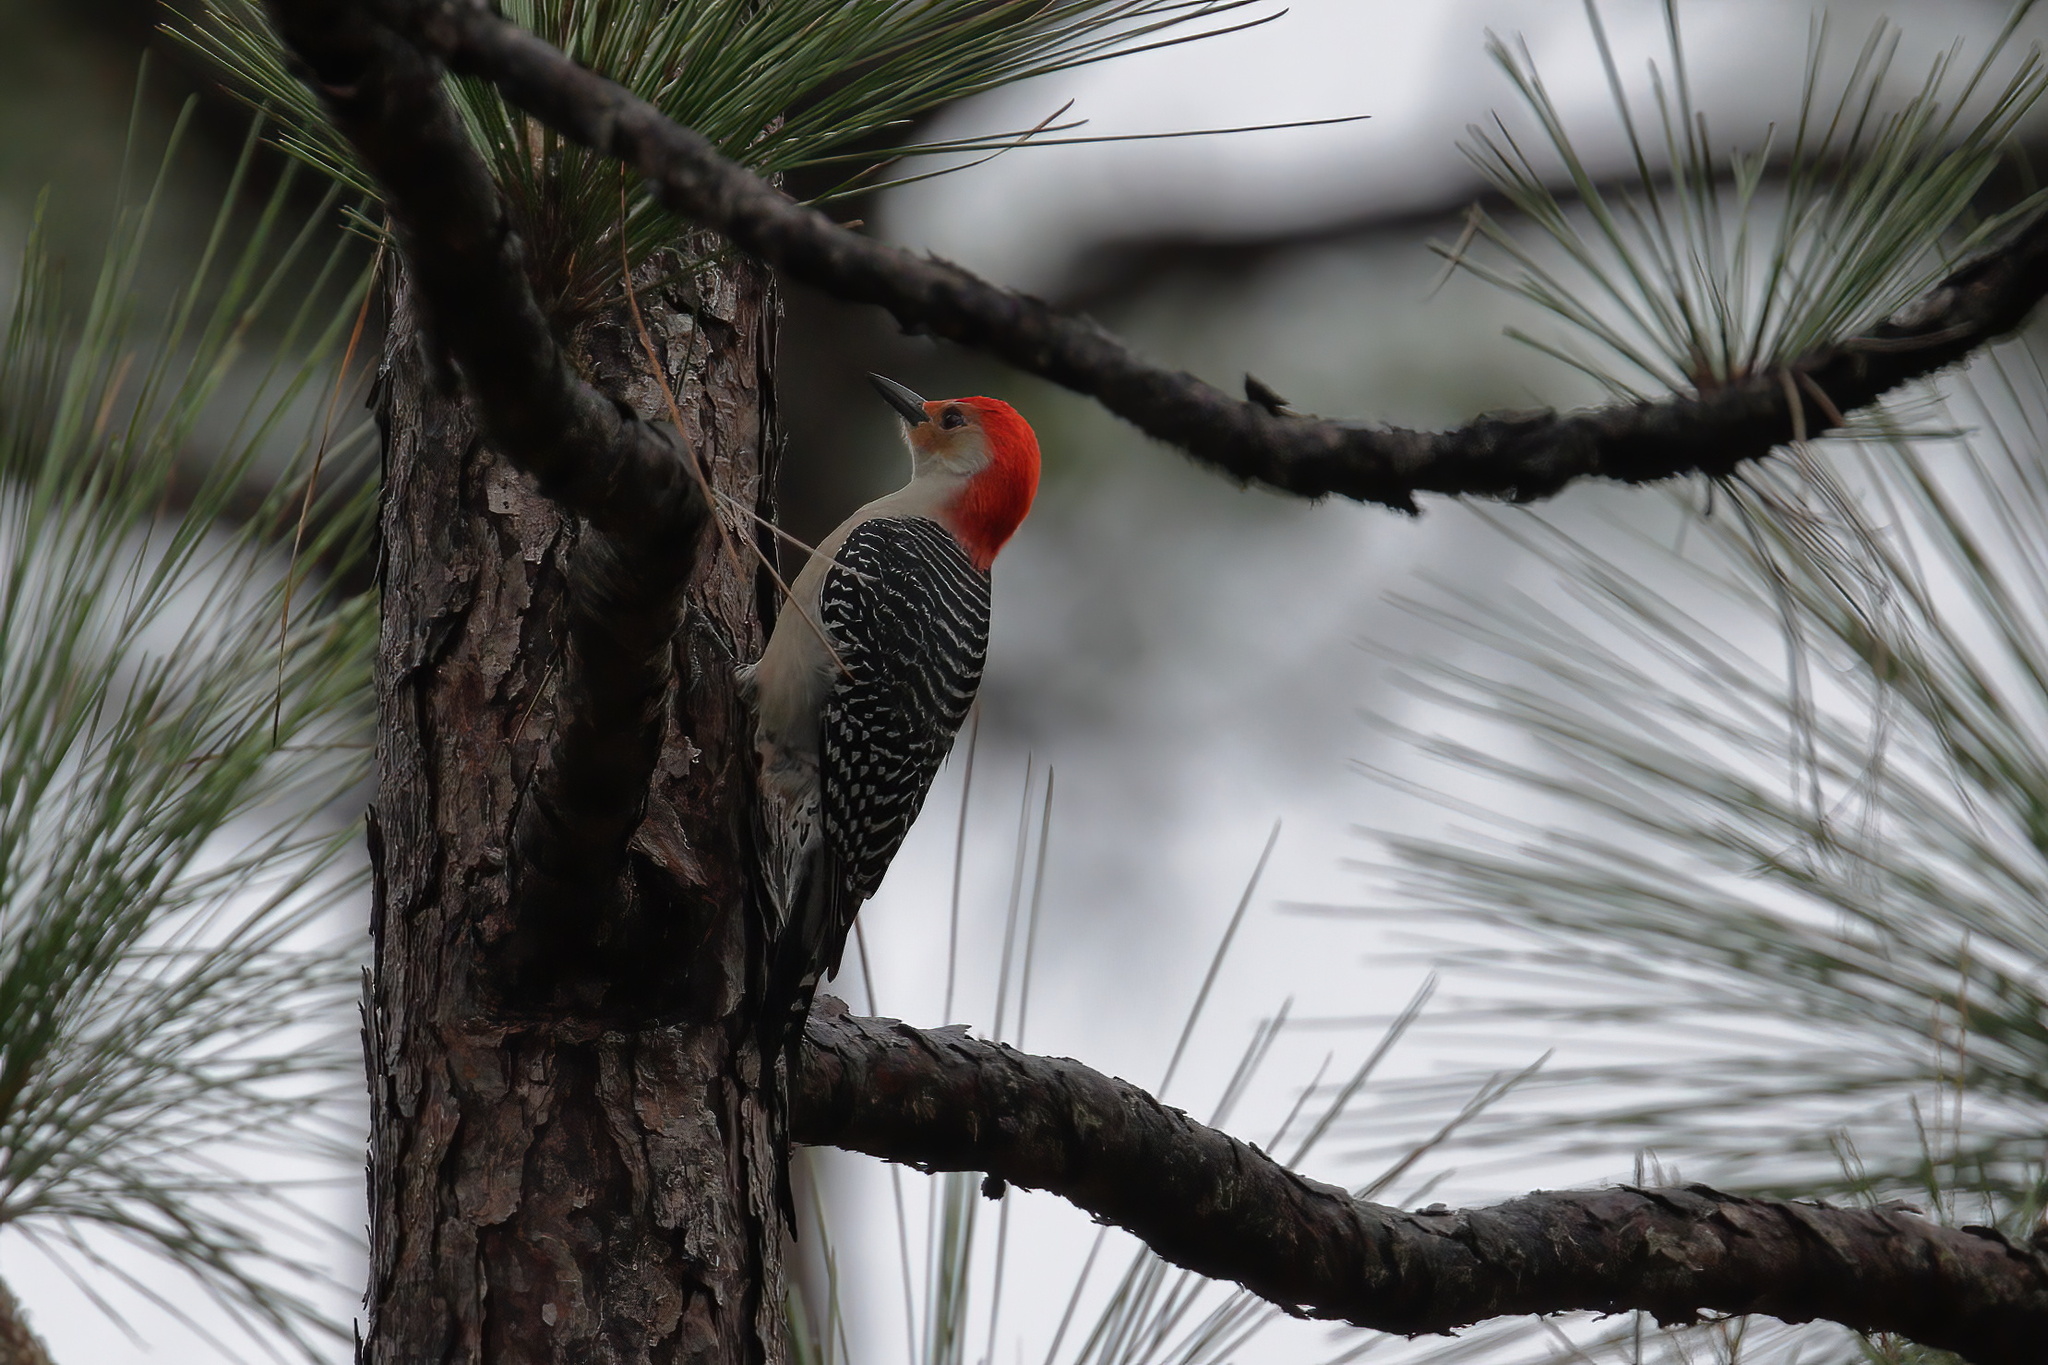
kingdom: Animalia
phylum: Chordata
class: Aves
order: Piciformes
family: Picidae
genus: Melanerpes
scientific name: Melanerpes carolinus
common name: Red-bellied woodpecker
